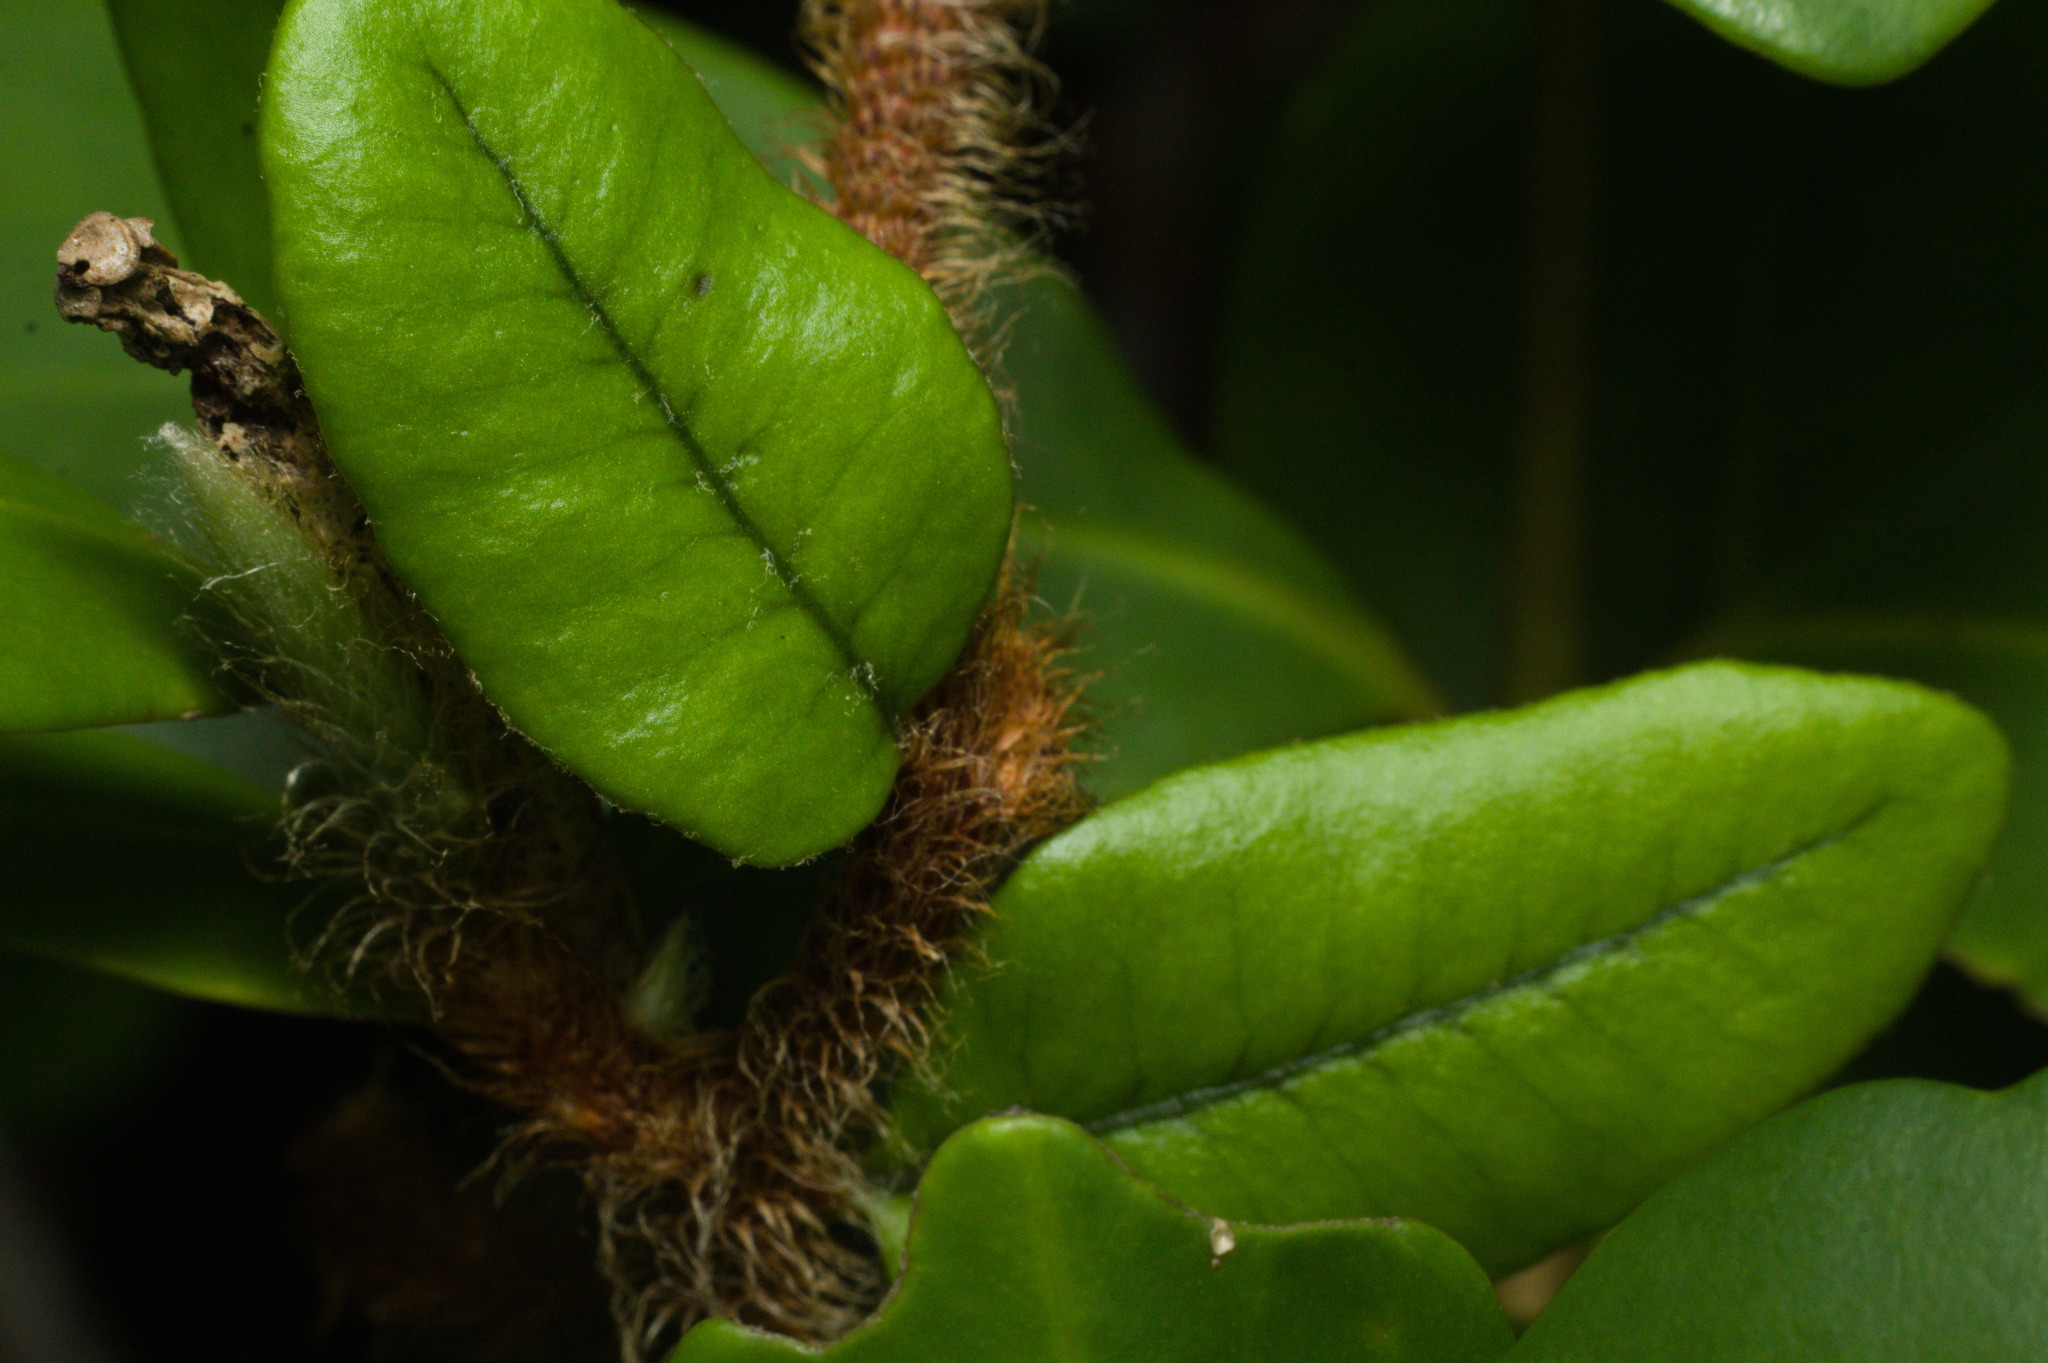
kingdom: Plantae
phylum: Tracheophyta
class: Polypodiopsida
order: Polypodiales
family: Polypodiaceae
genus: Microgramma
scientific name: Microgramma vaccinifolia
